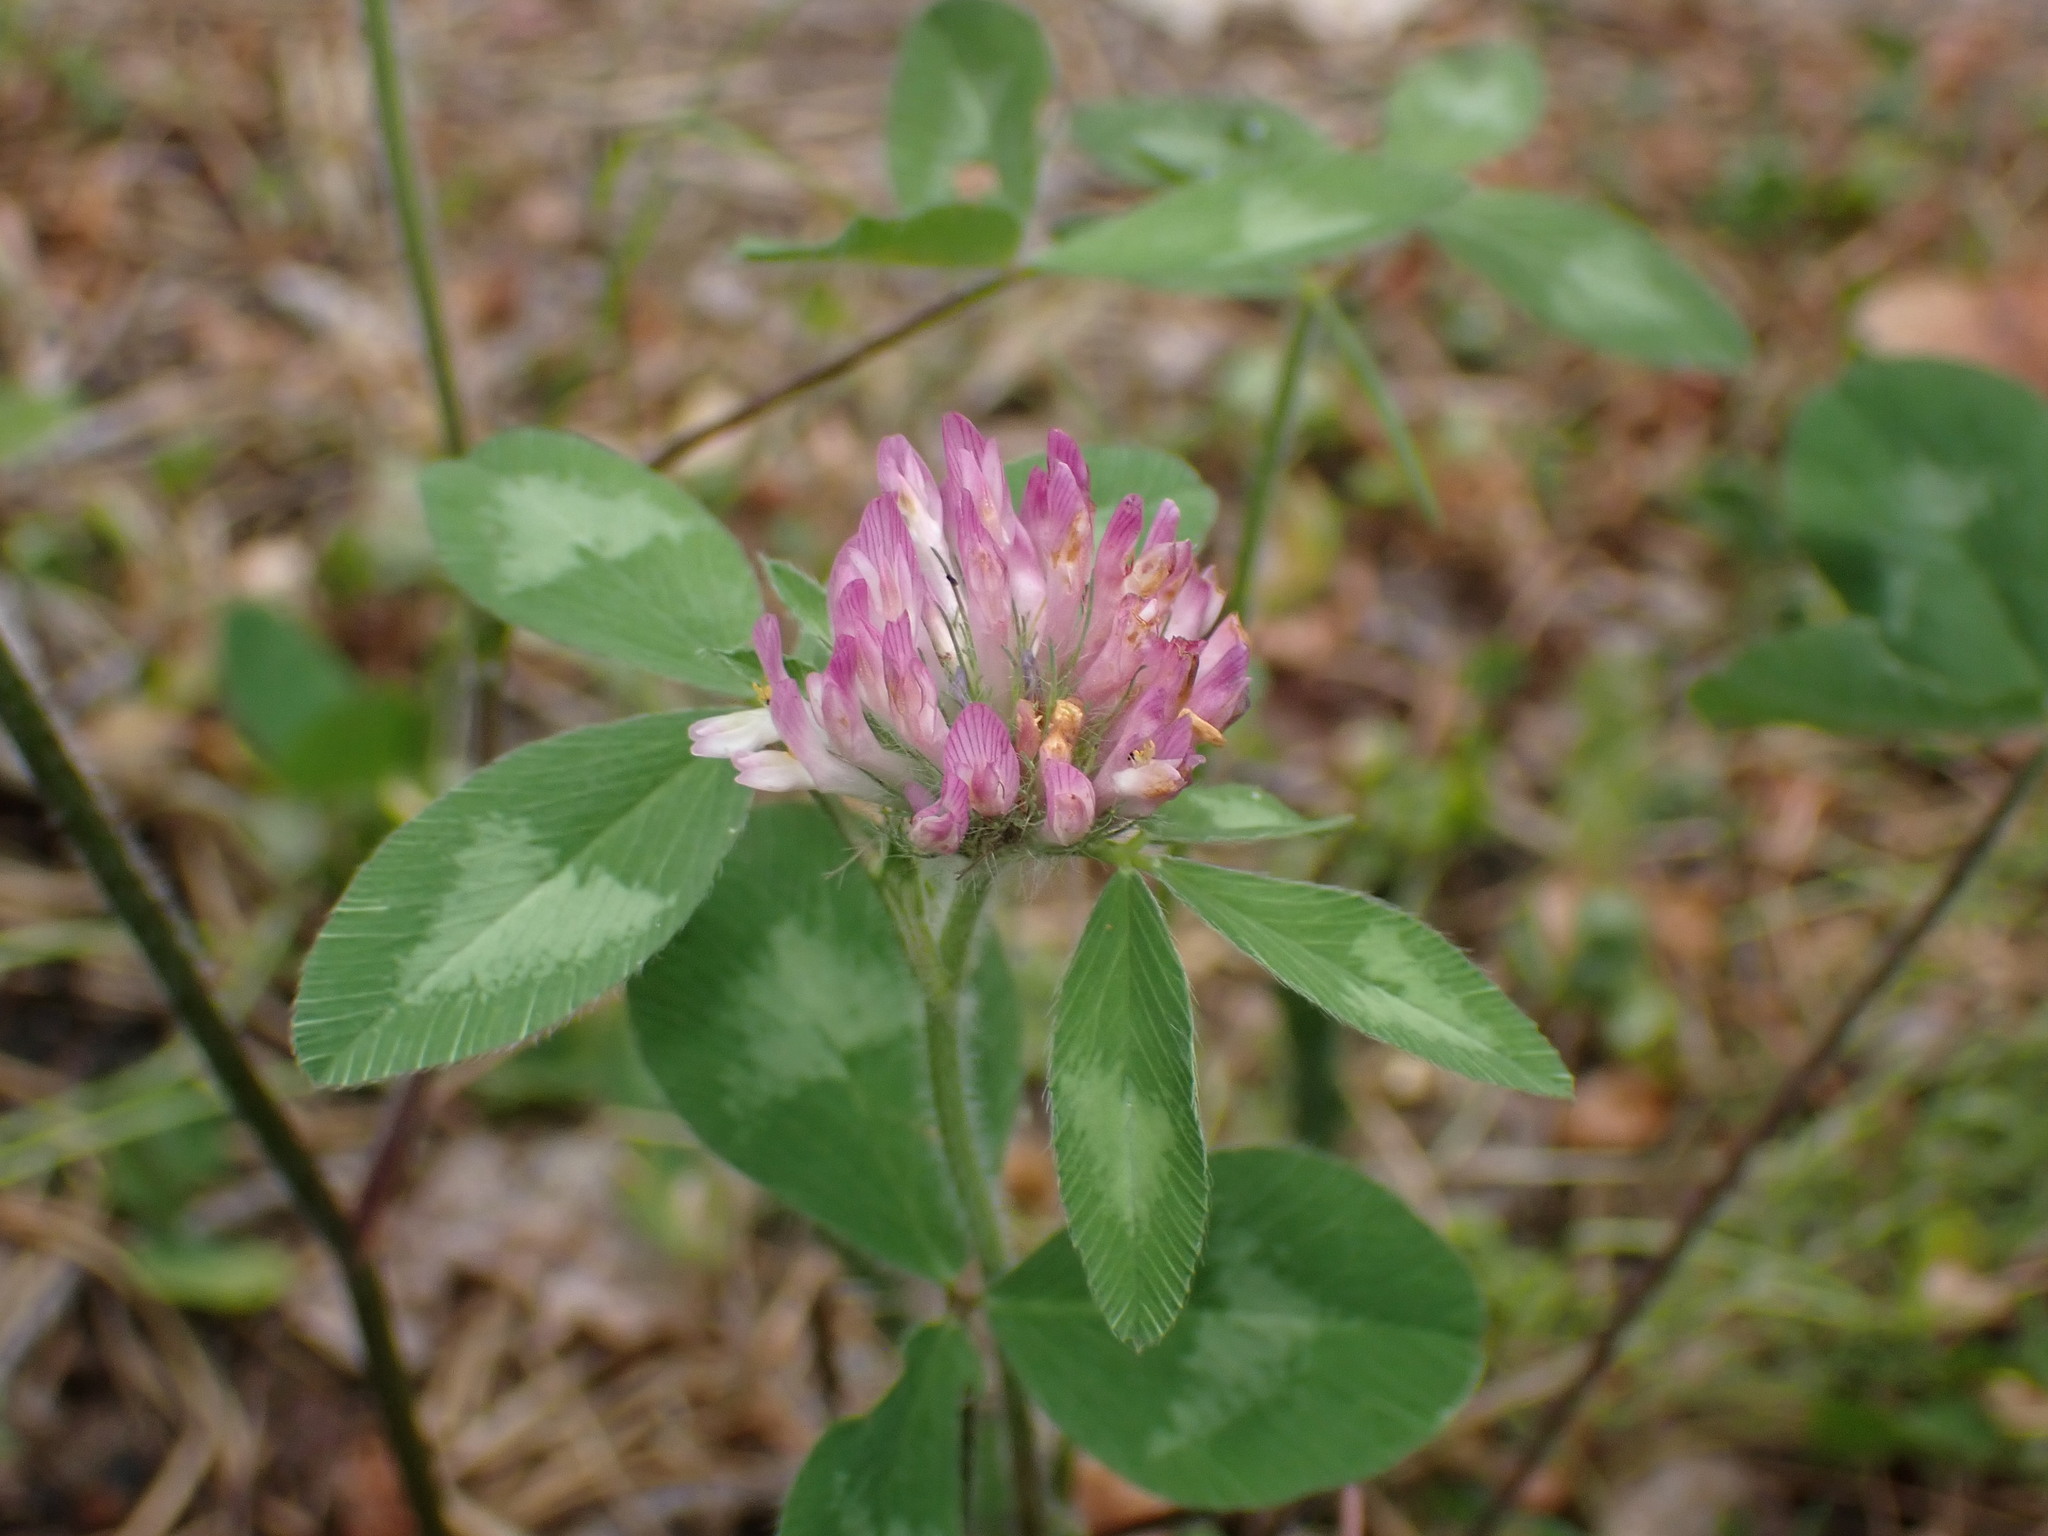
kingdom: Plantae
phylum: Tracheophyta
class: Magnoliopsida
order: Fabales
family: Fabaceae
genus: Trifolium
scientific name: Trifolium pratense
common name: Red clover
